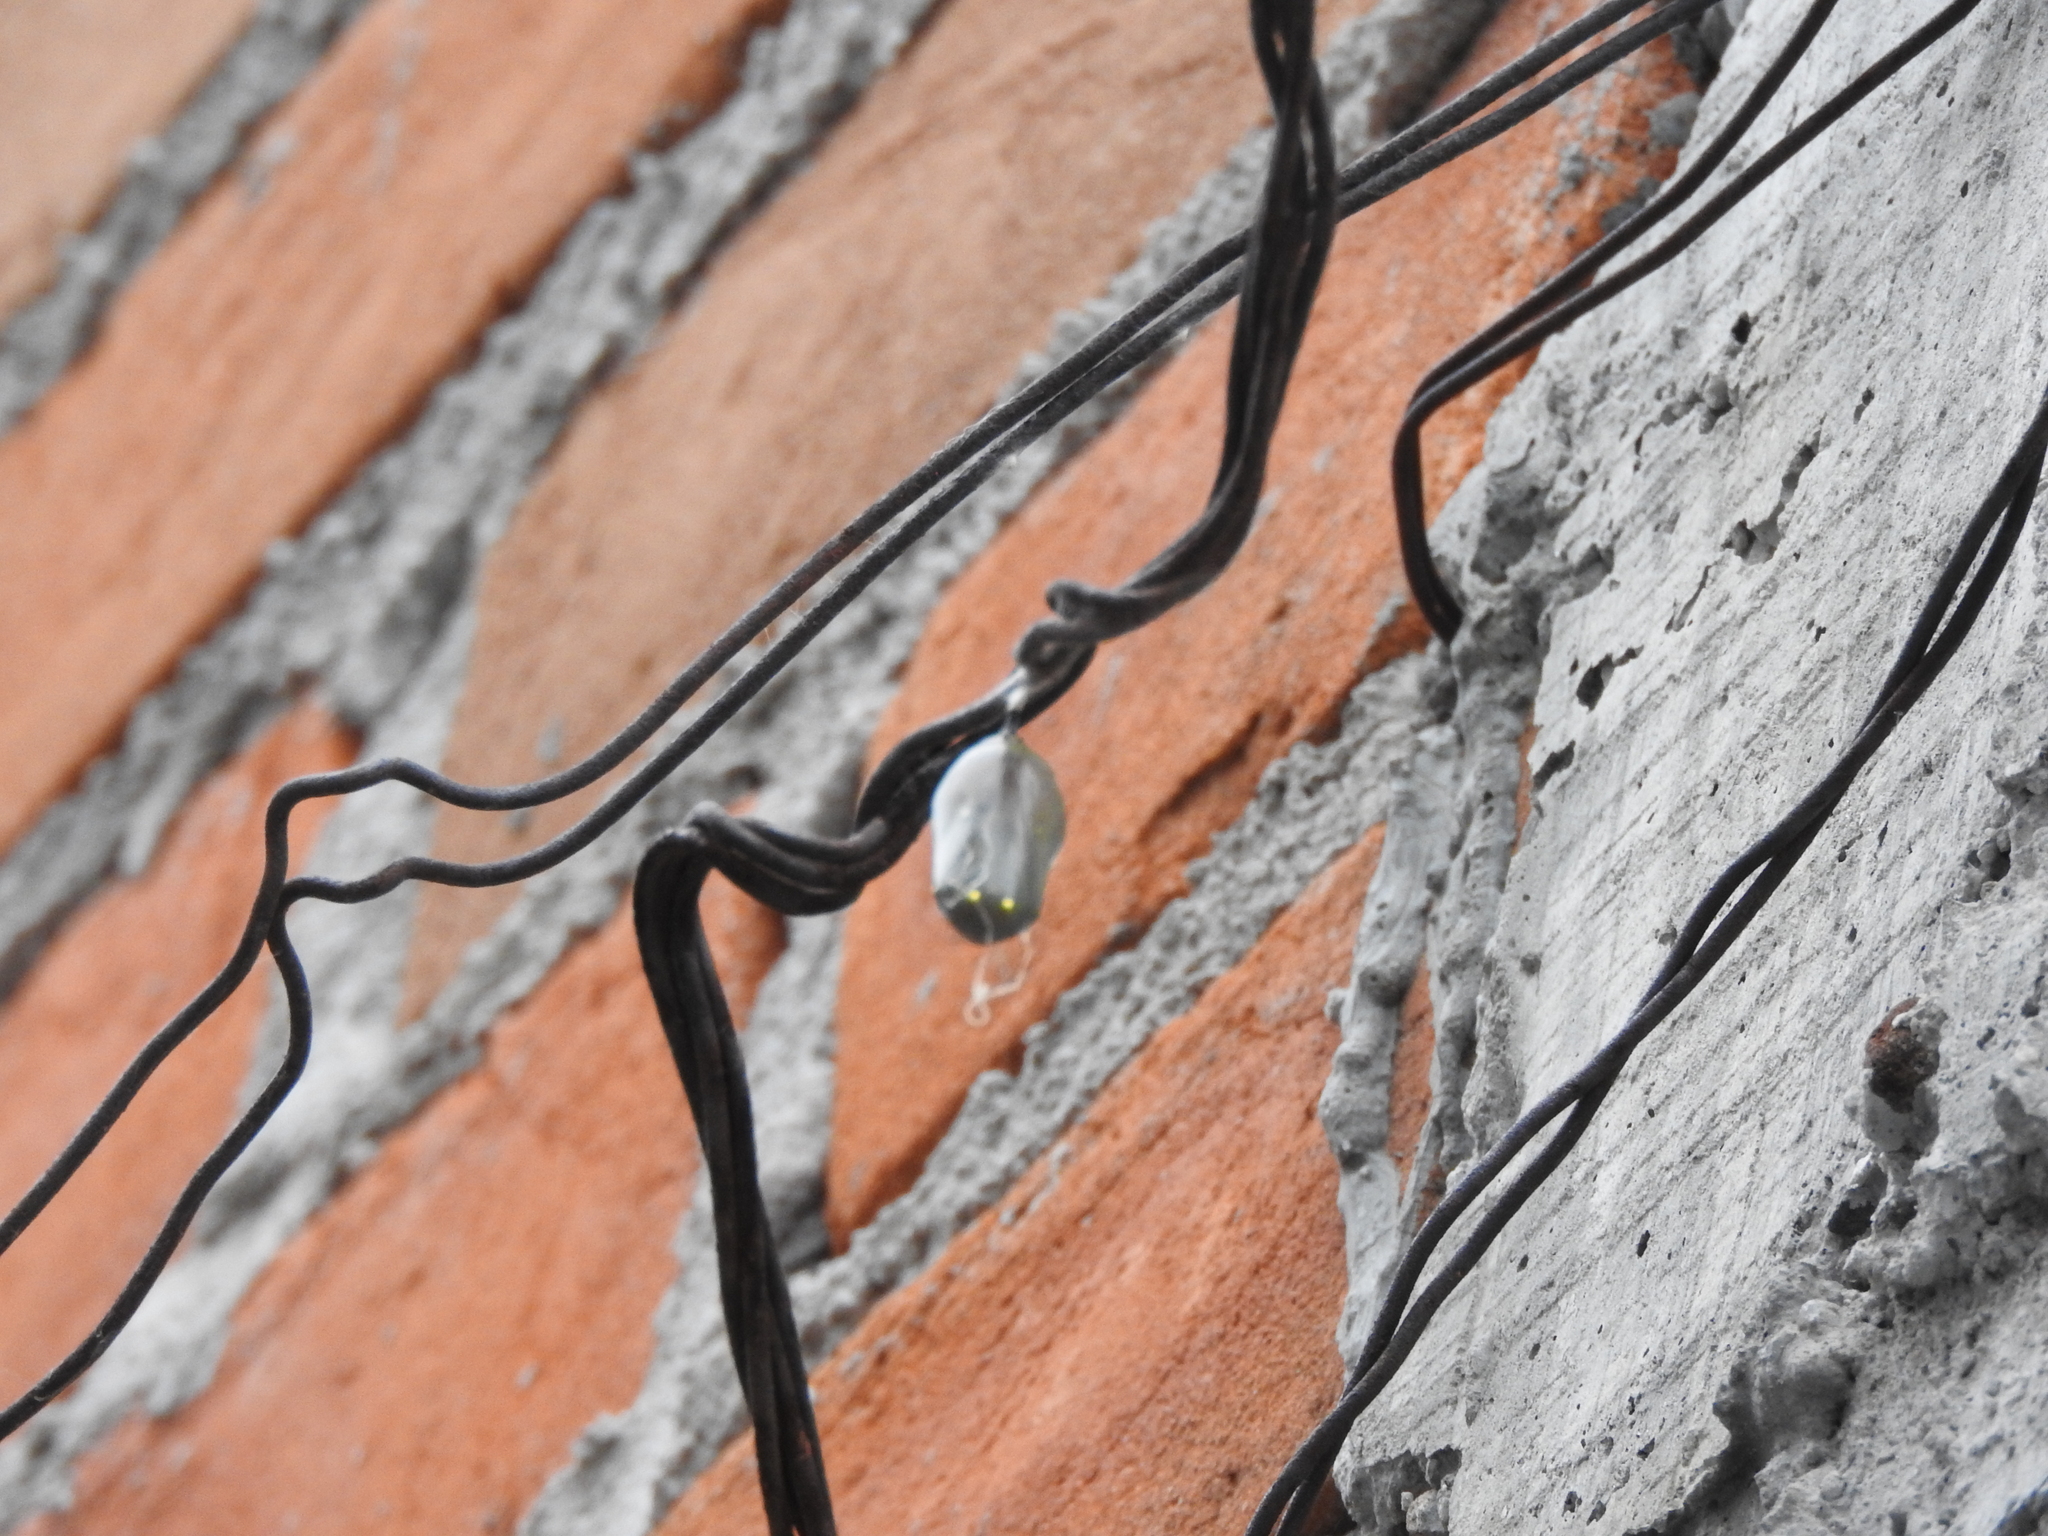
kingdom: Animalia
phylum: Arthropoda
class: Insecta
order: Lepidoptera
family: Nymphalidae
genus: Danaus
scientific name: Danaus plexippus
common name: Monarch
